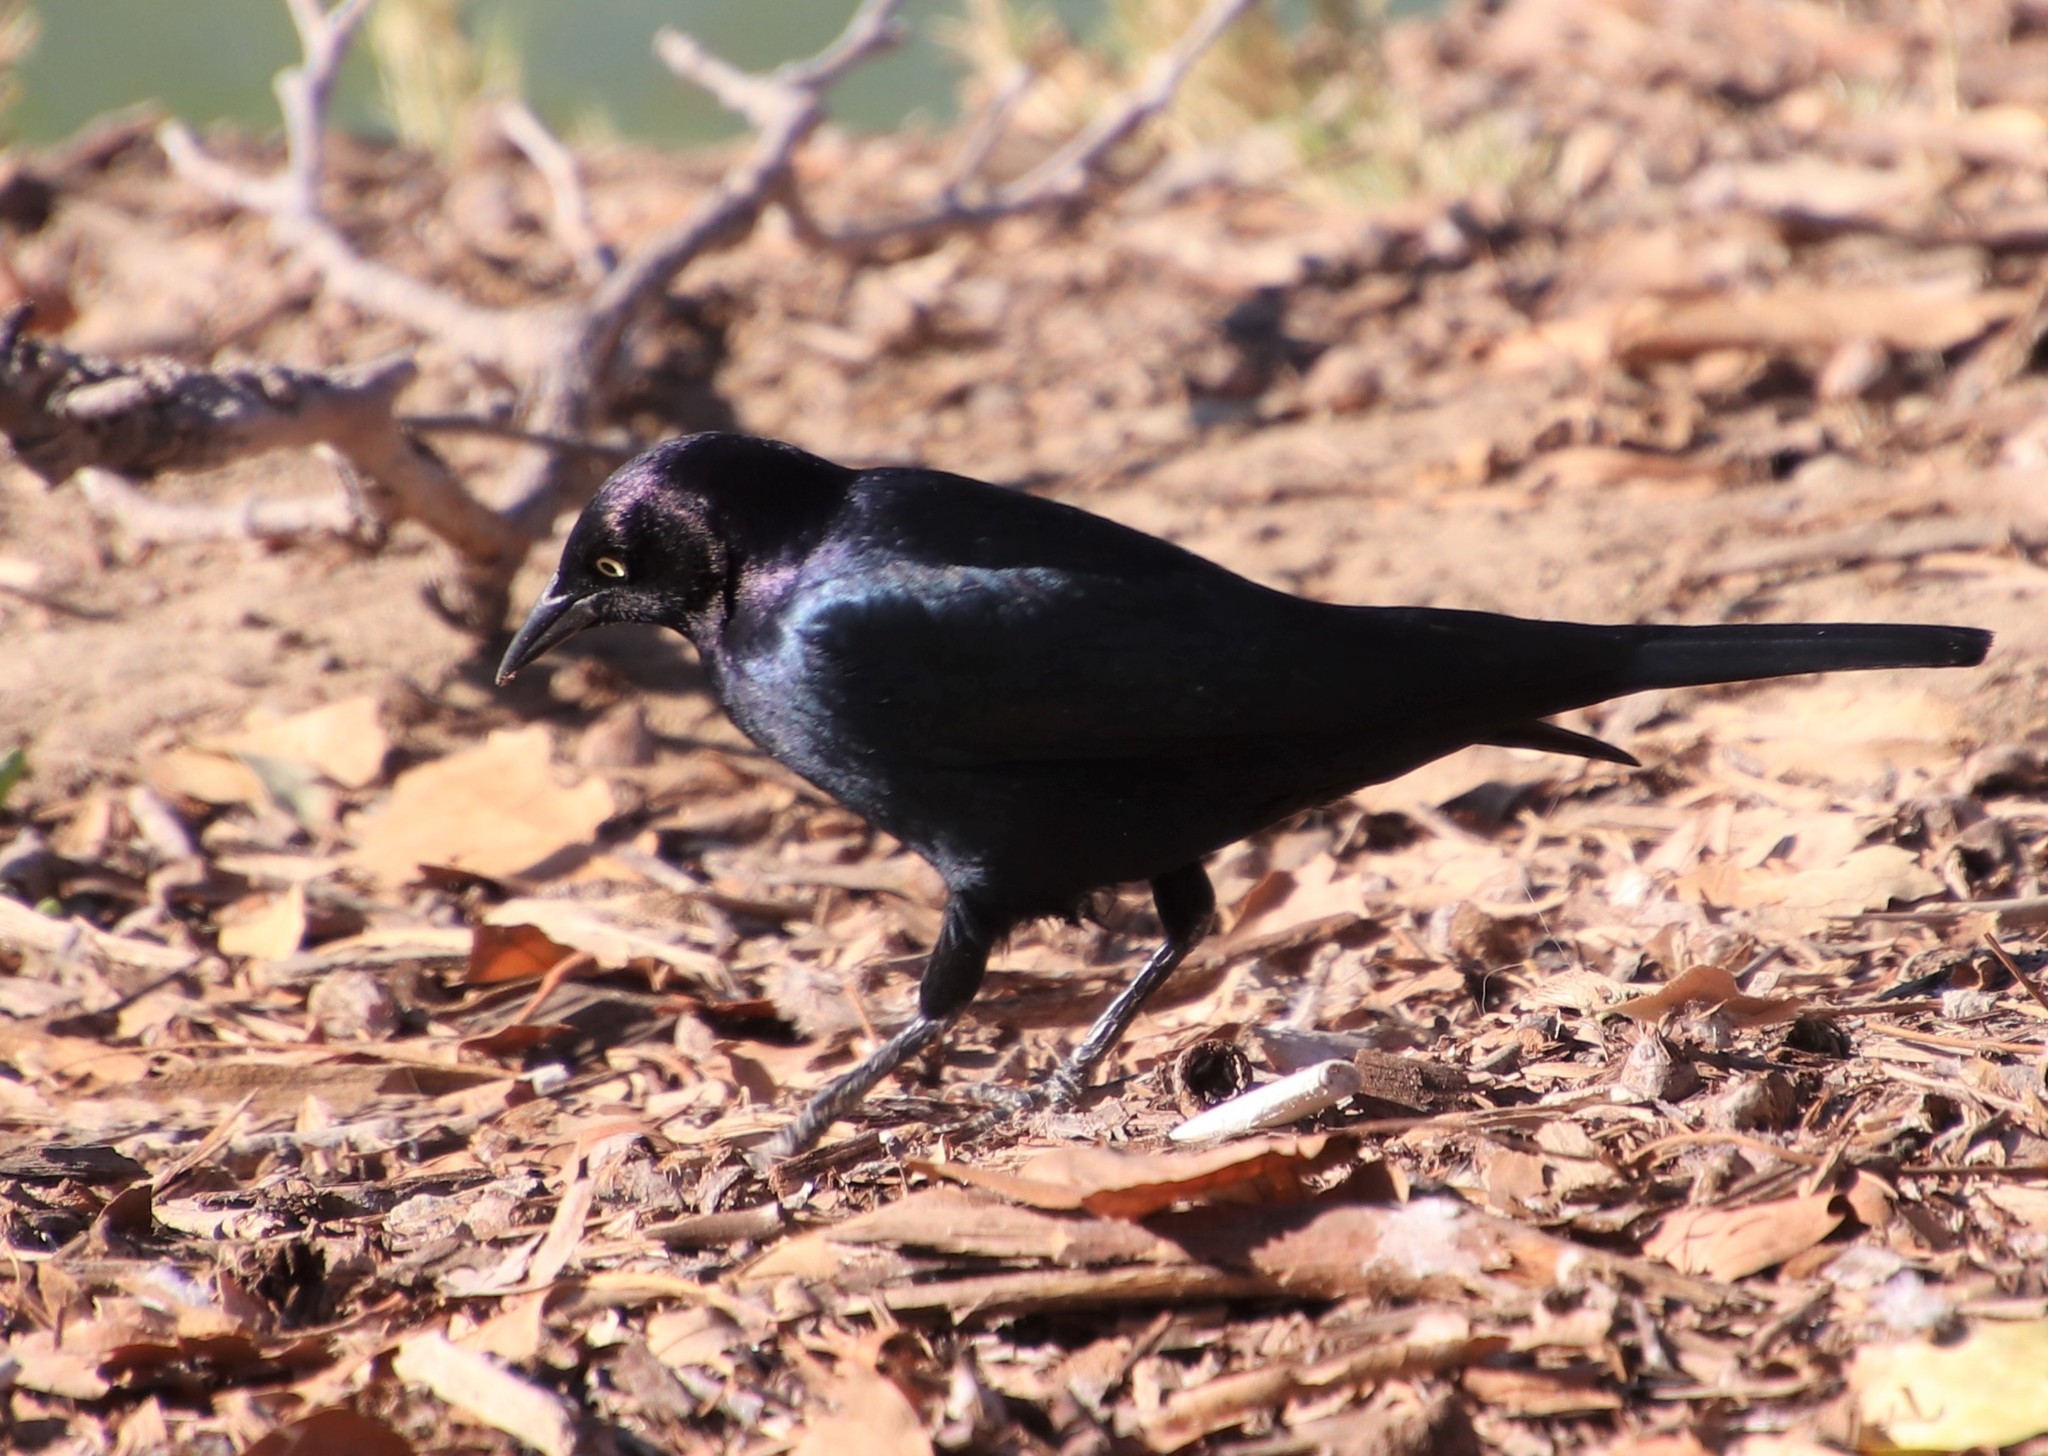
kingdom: Animalia
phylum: Chordata
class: Aves
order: Passeriformes
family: Icteridae
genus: Euphagus
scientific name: Euphagus cyanocephalus
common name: Brewer's blackbird
